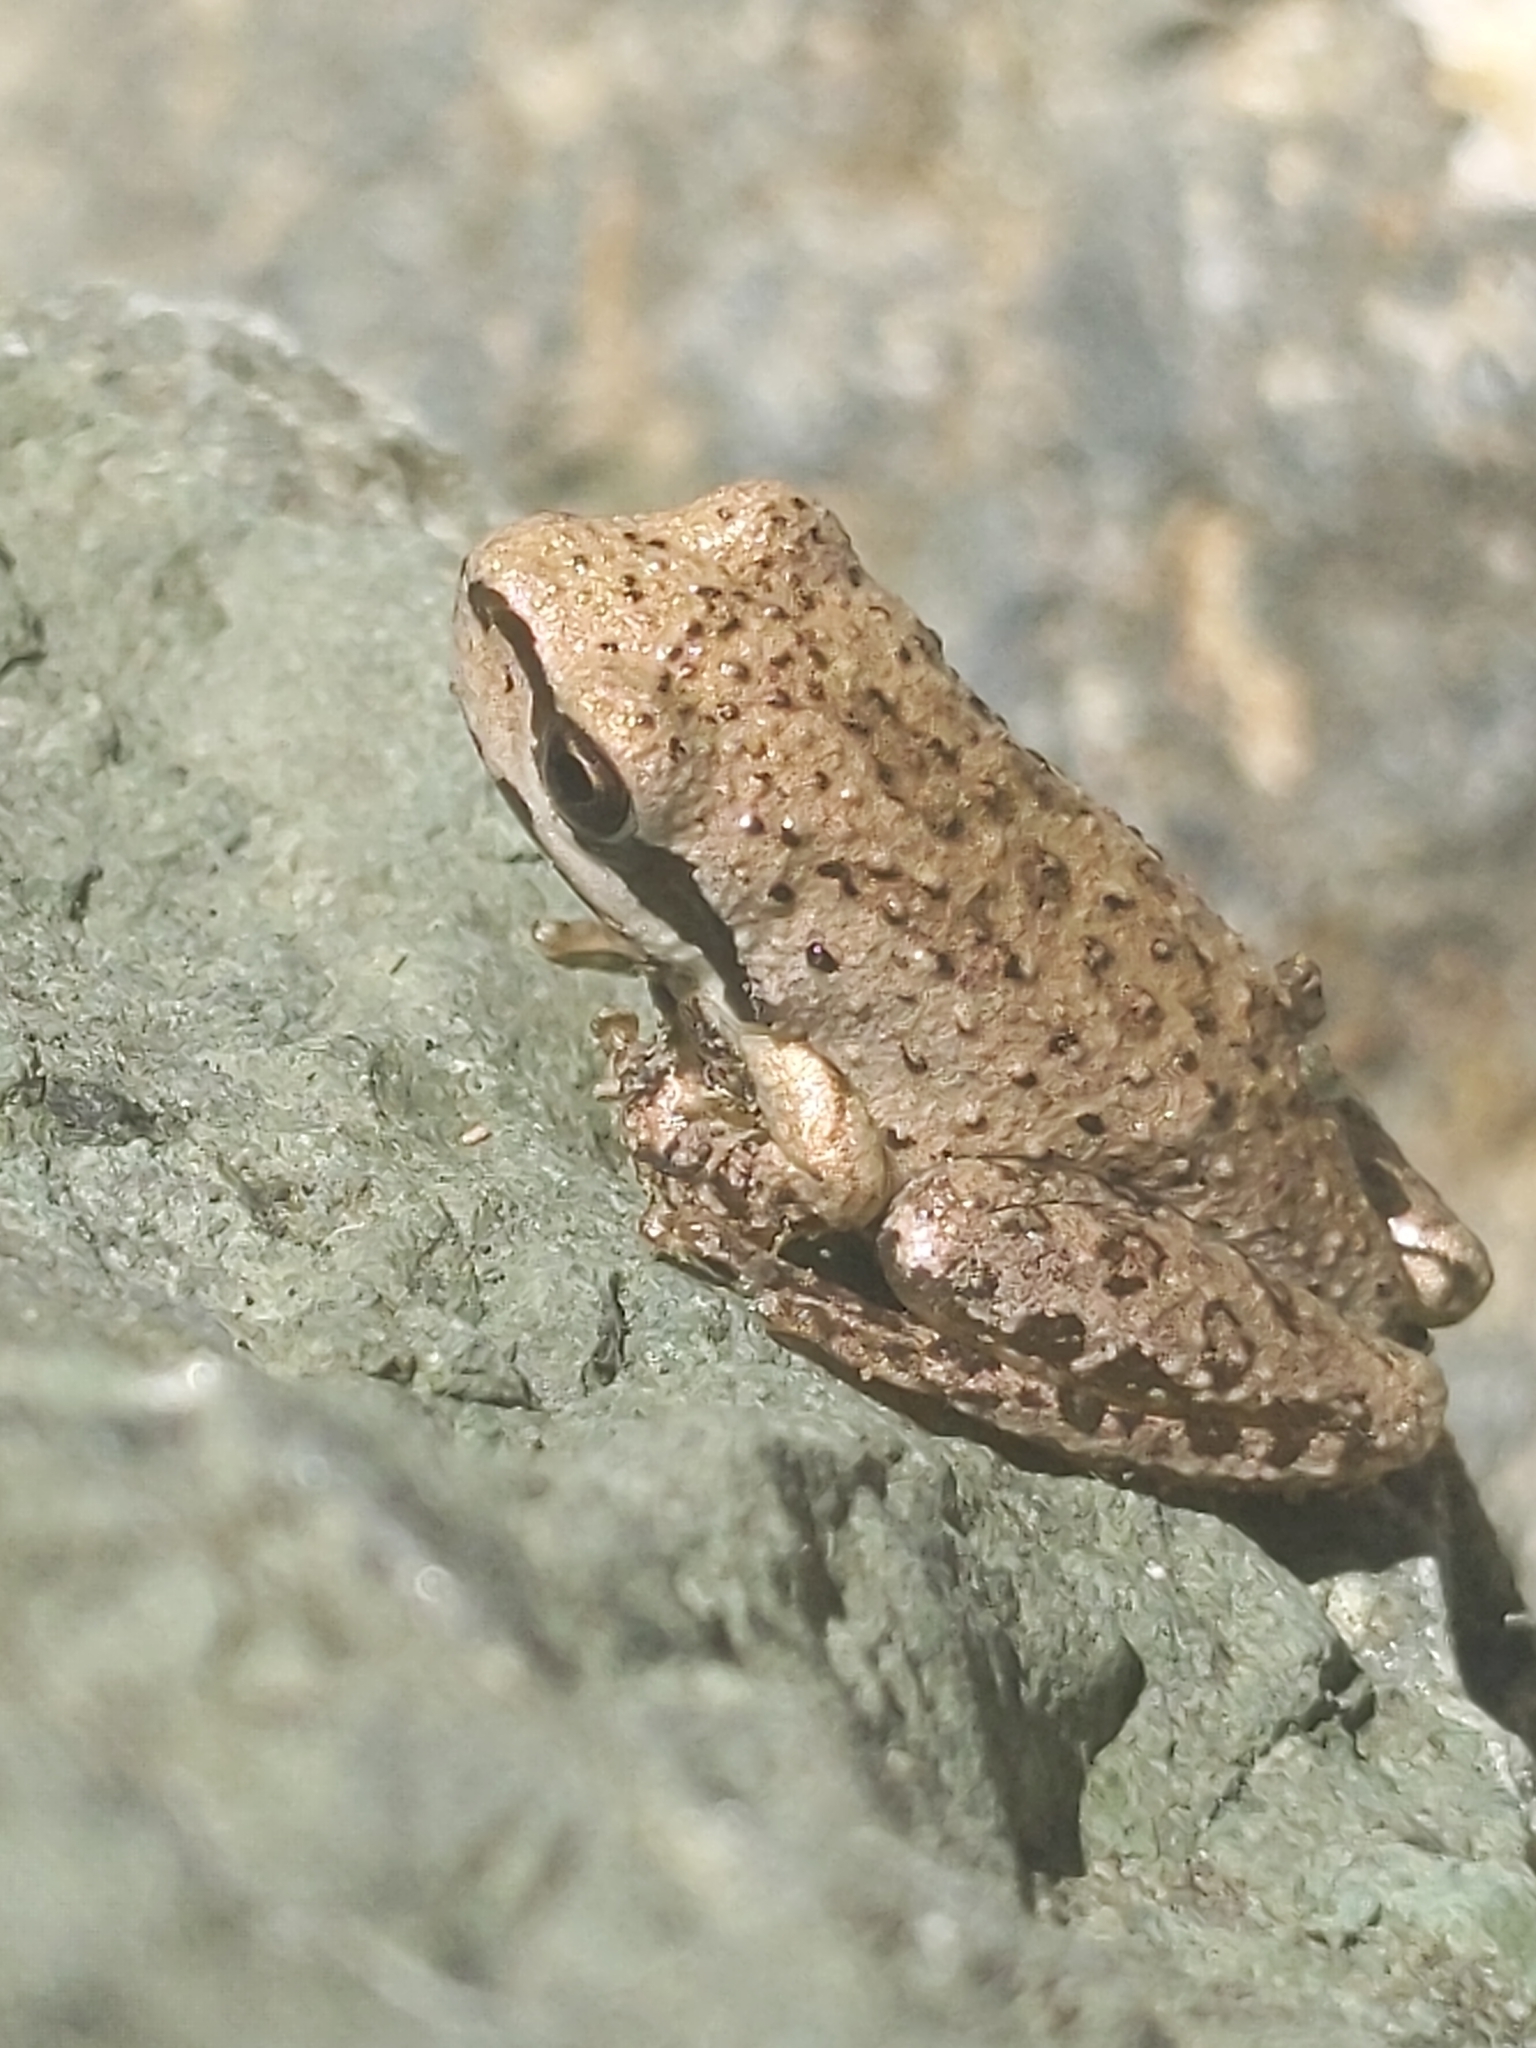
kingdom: Animalia
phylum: Chordata
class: Amphibia
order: Anura
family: Hylidae
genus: Pseudacris
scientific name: Pseudacris regilla
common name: Pacific chorus frog
